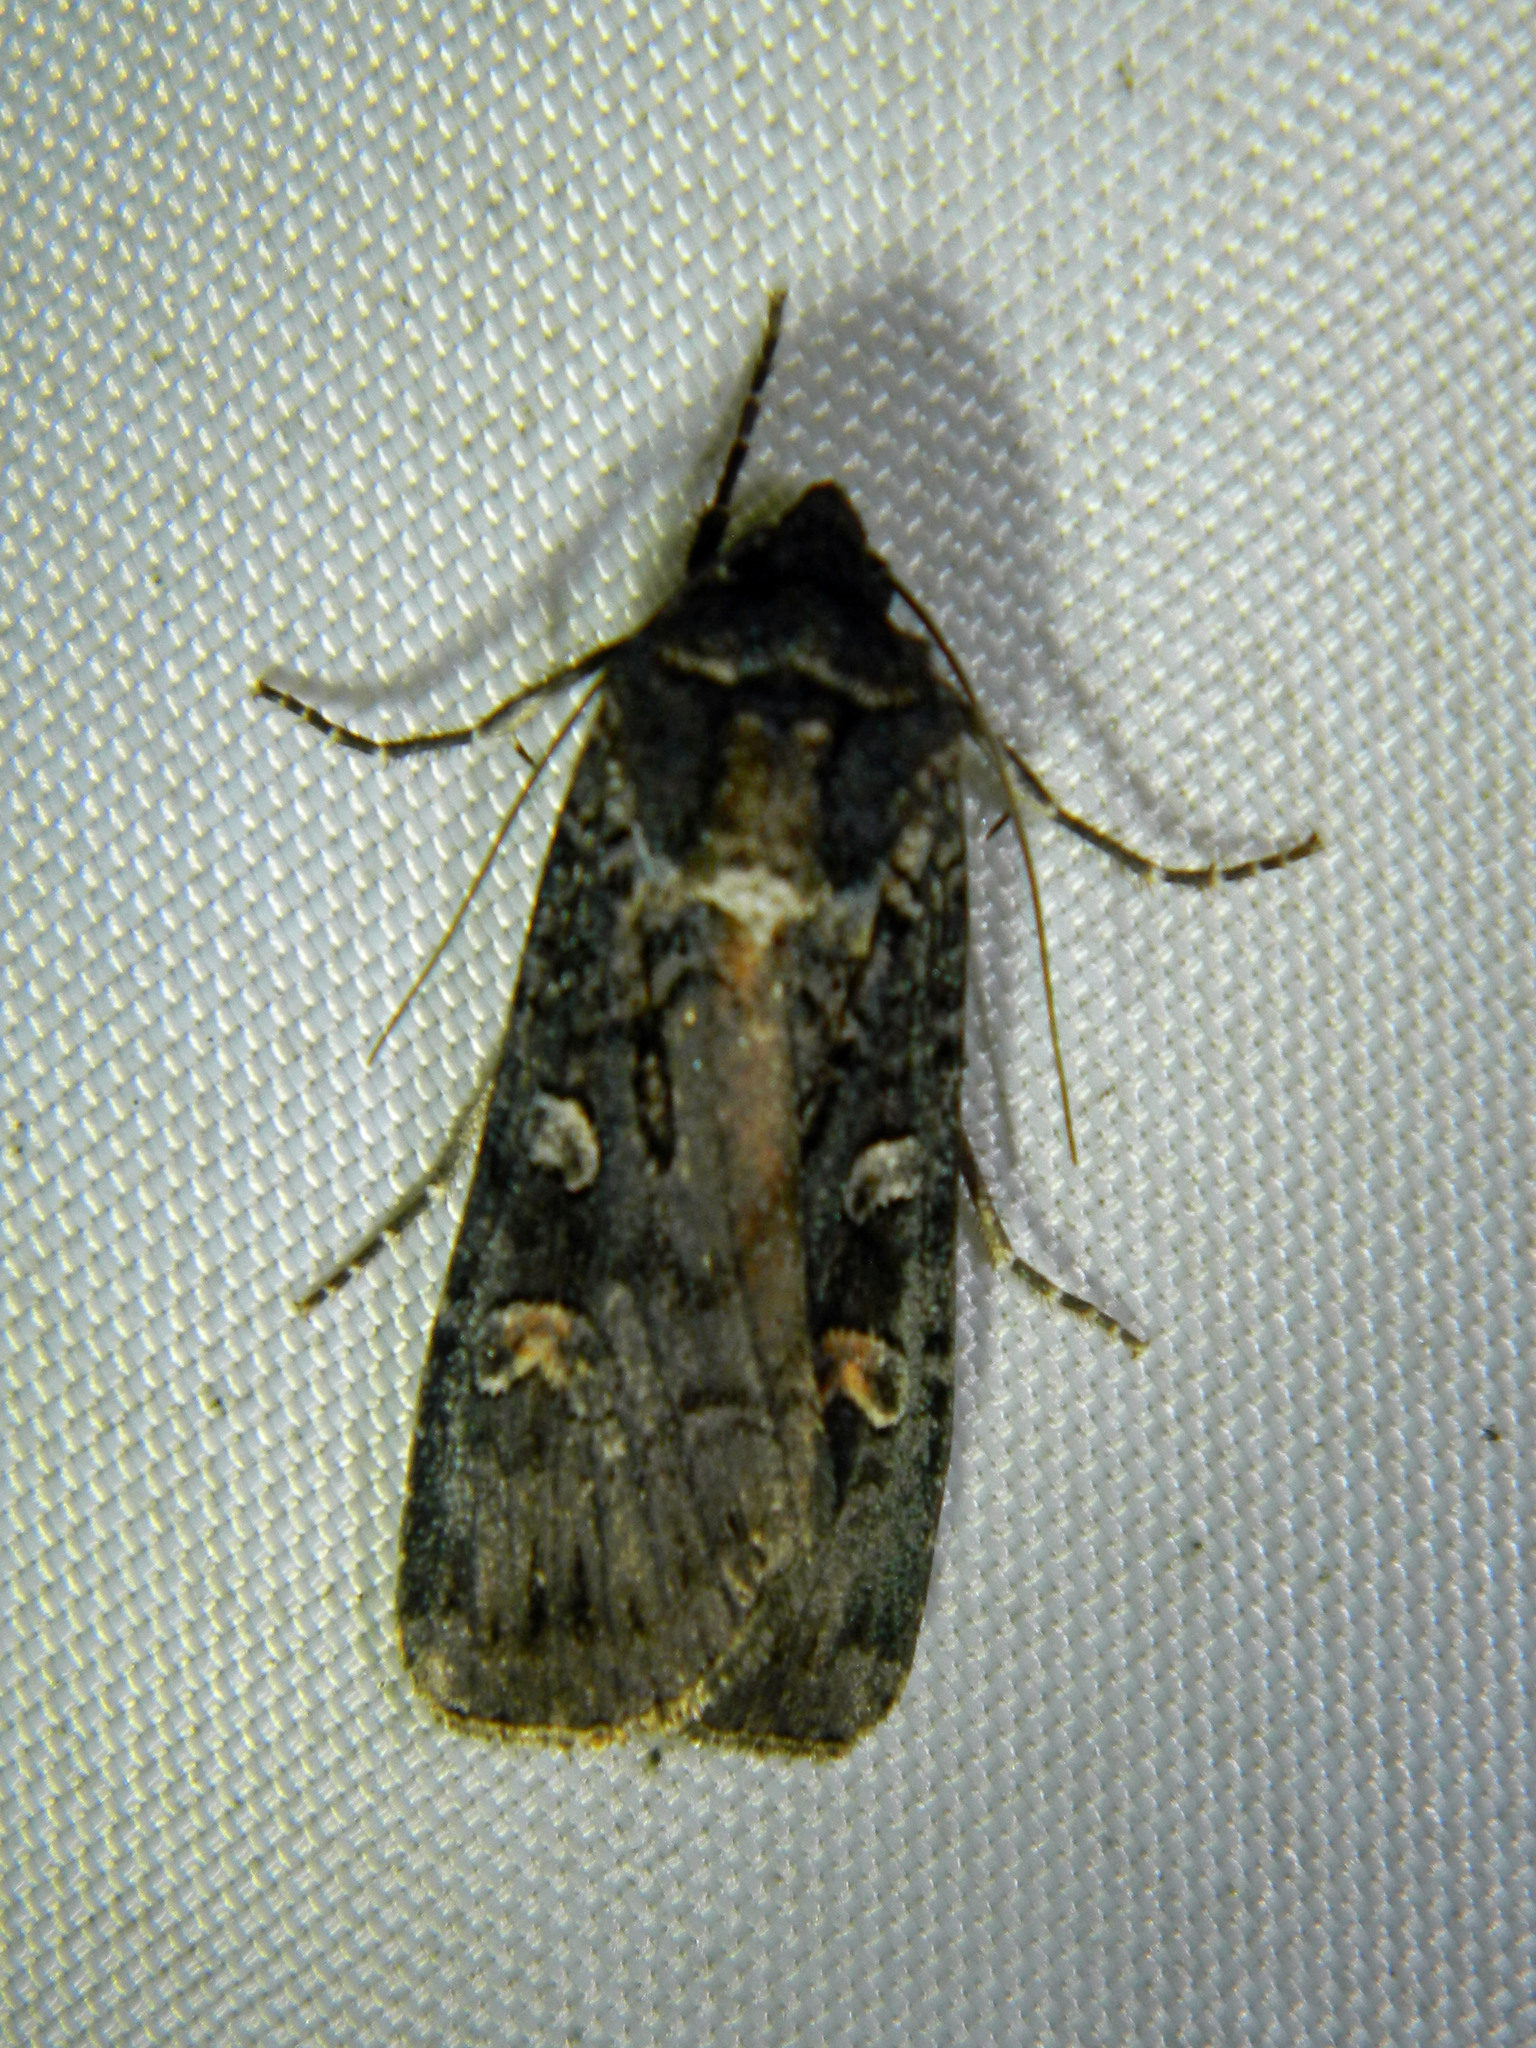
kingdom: Animalia
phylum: Arthropoda
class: Insecta
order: Lepidoptera
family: Noctuidae
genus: Actebia
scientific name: Actebia fennica
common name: Eversmann's rustic
